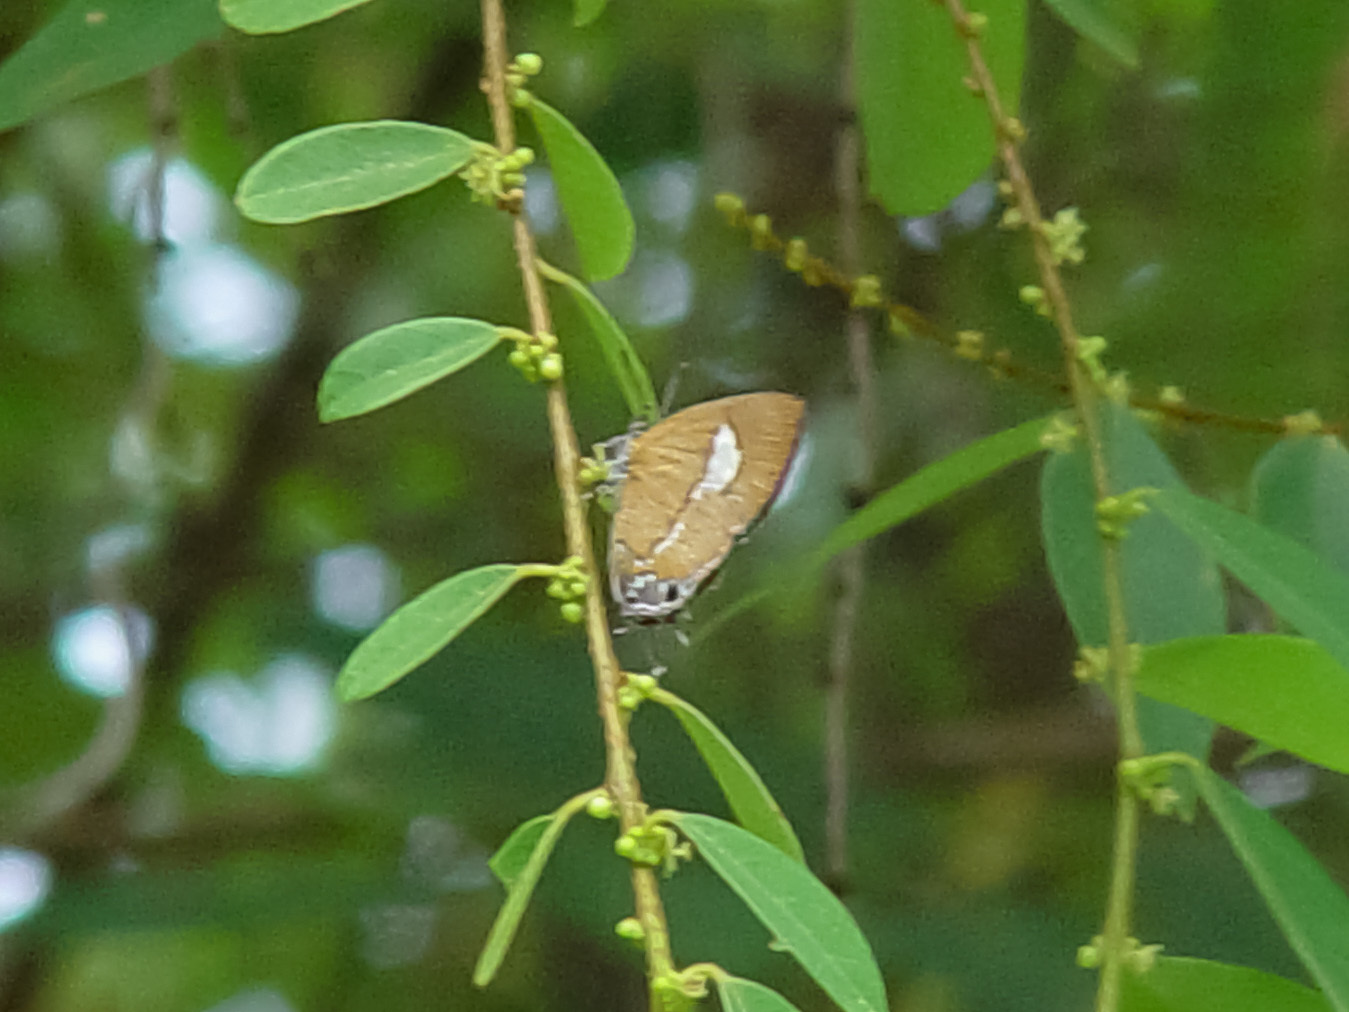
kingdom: Animalia
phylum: Arthropoda
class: Insecta
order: Lepidoptera
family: Lycaenidae
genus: Horaga
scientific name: Horaga onyx
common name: Common onyx
